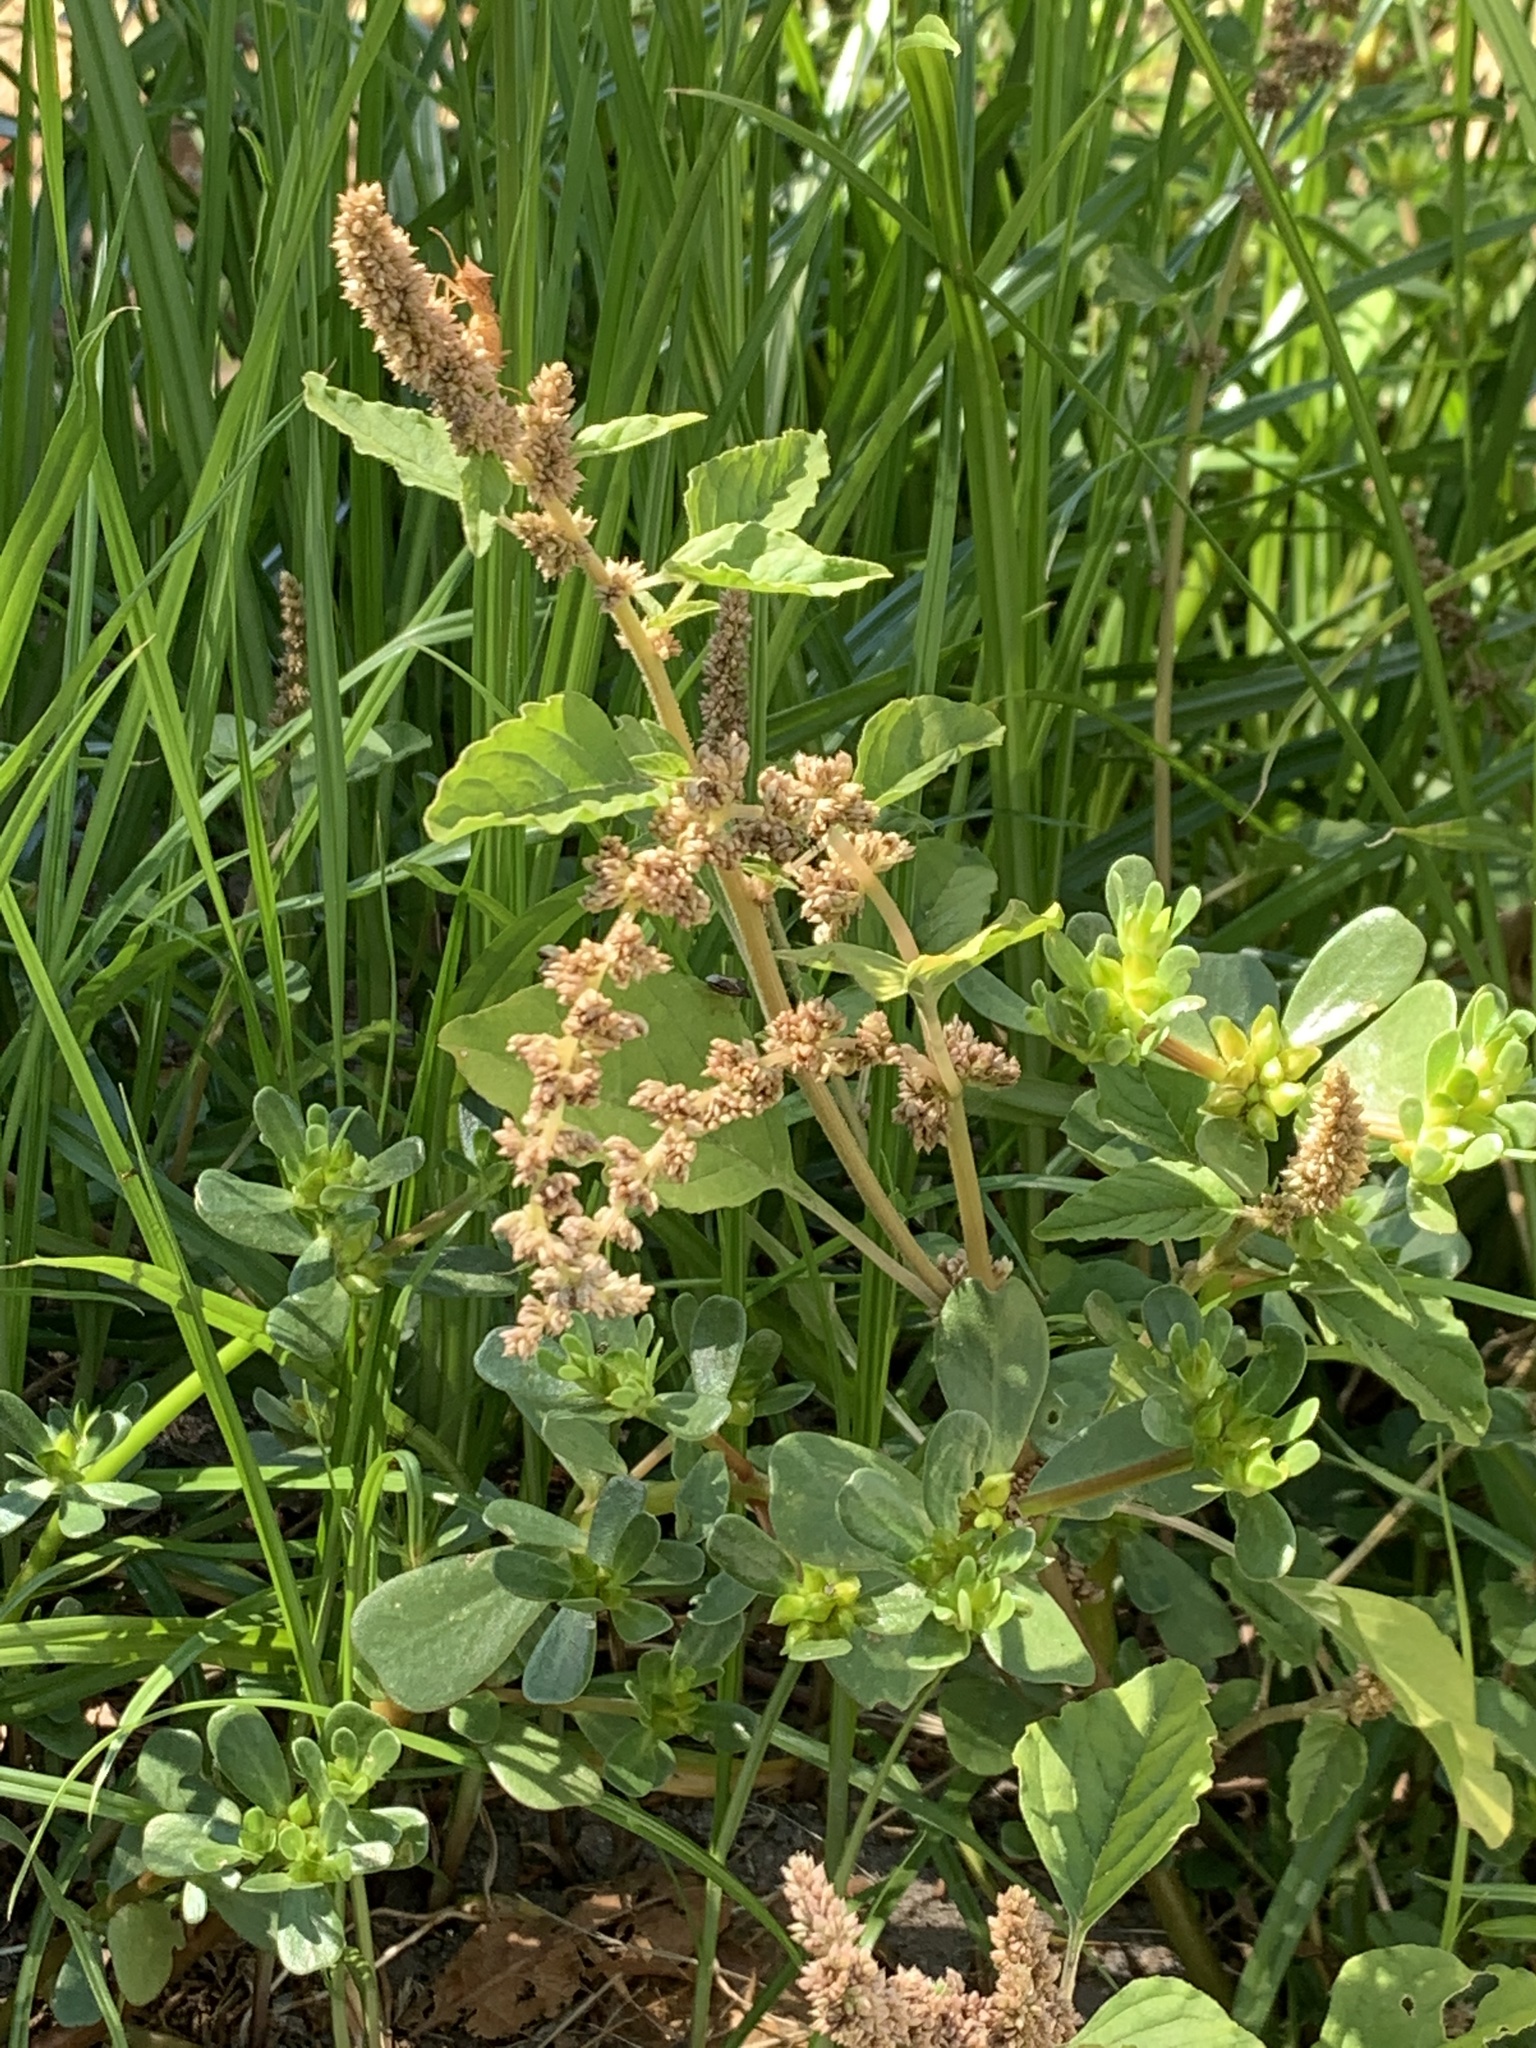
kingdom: Plantae
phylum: Tracheophyta
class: Magnoliopsida
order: Caryophyllales
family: Amaranthaceae
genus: Amaranthus
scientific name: Amaranthus deflexus
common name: Perennial pigweed
